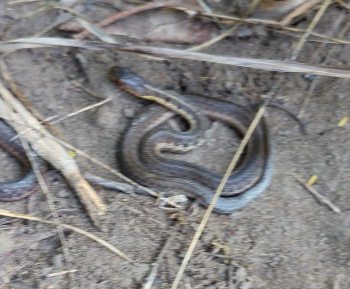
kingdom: Animalia
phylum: Chordata
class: Squamata
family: Colubridae
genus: Thamnophis
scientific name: Thamnophis sirtalis
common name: Common garter snake
